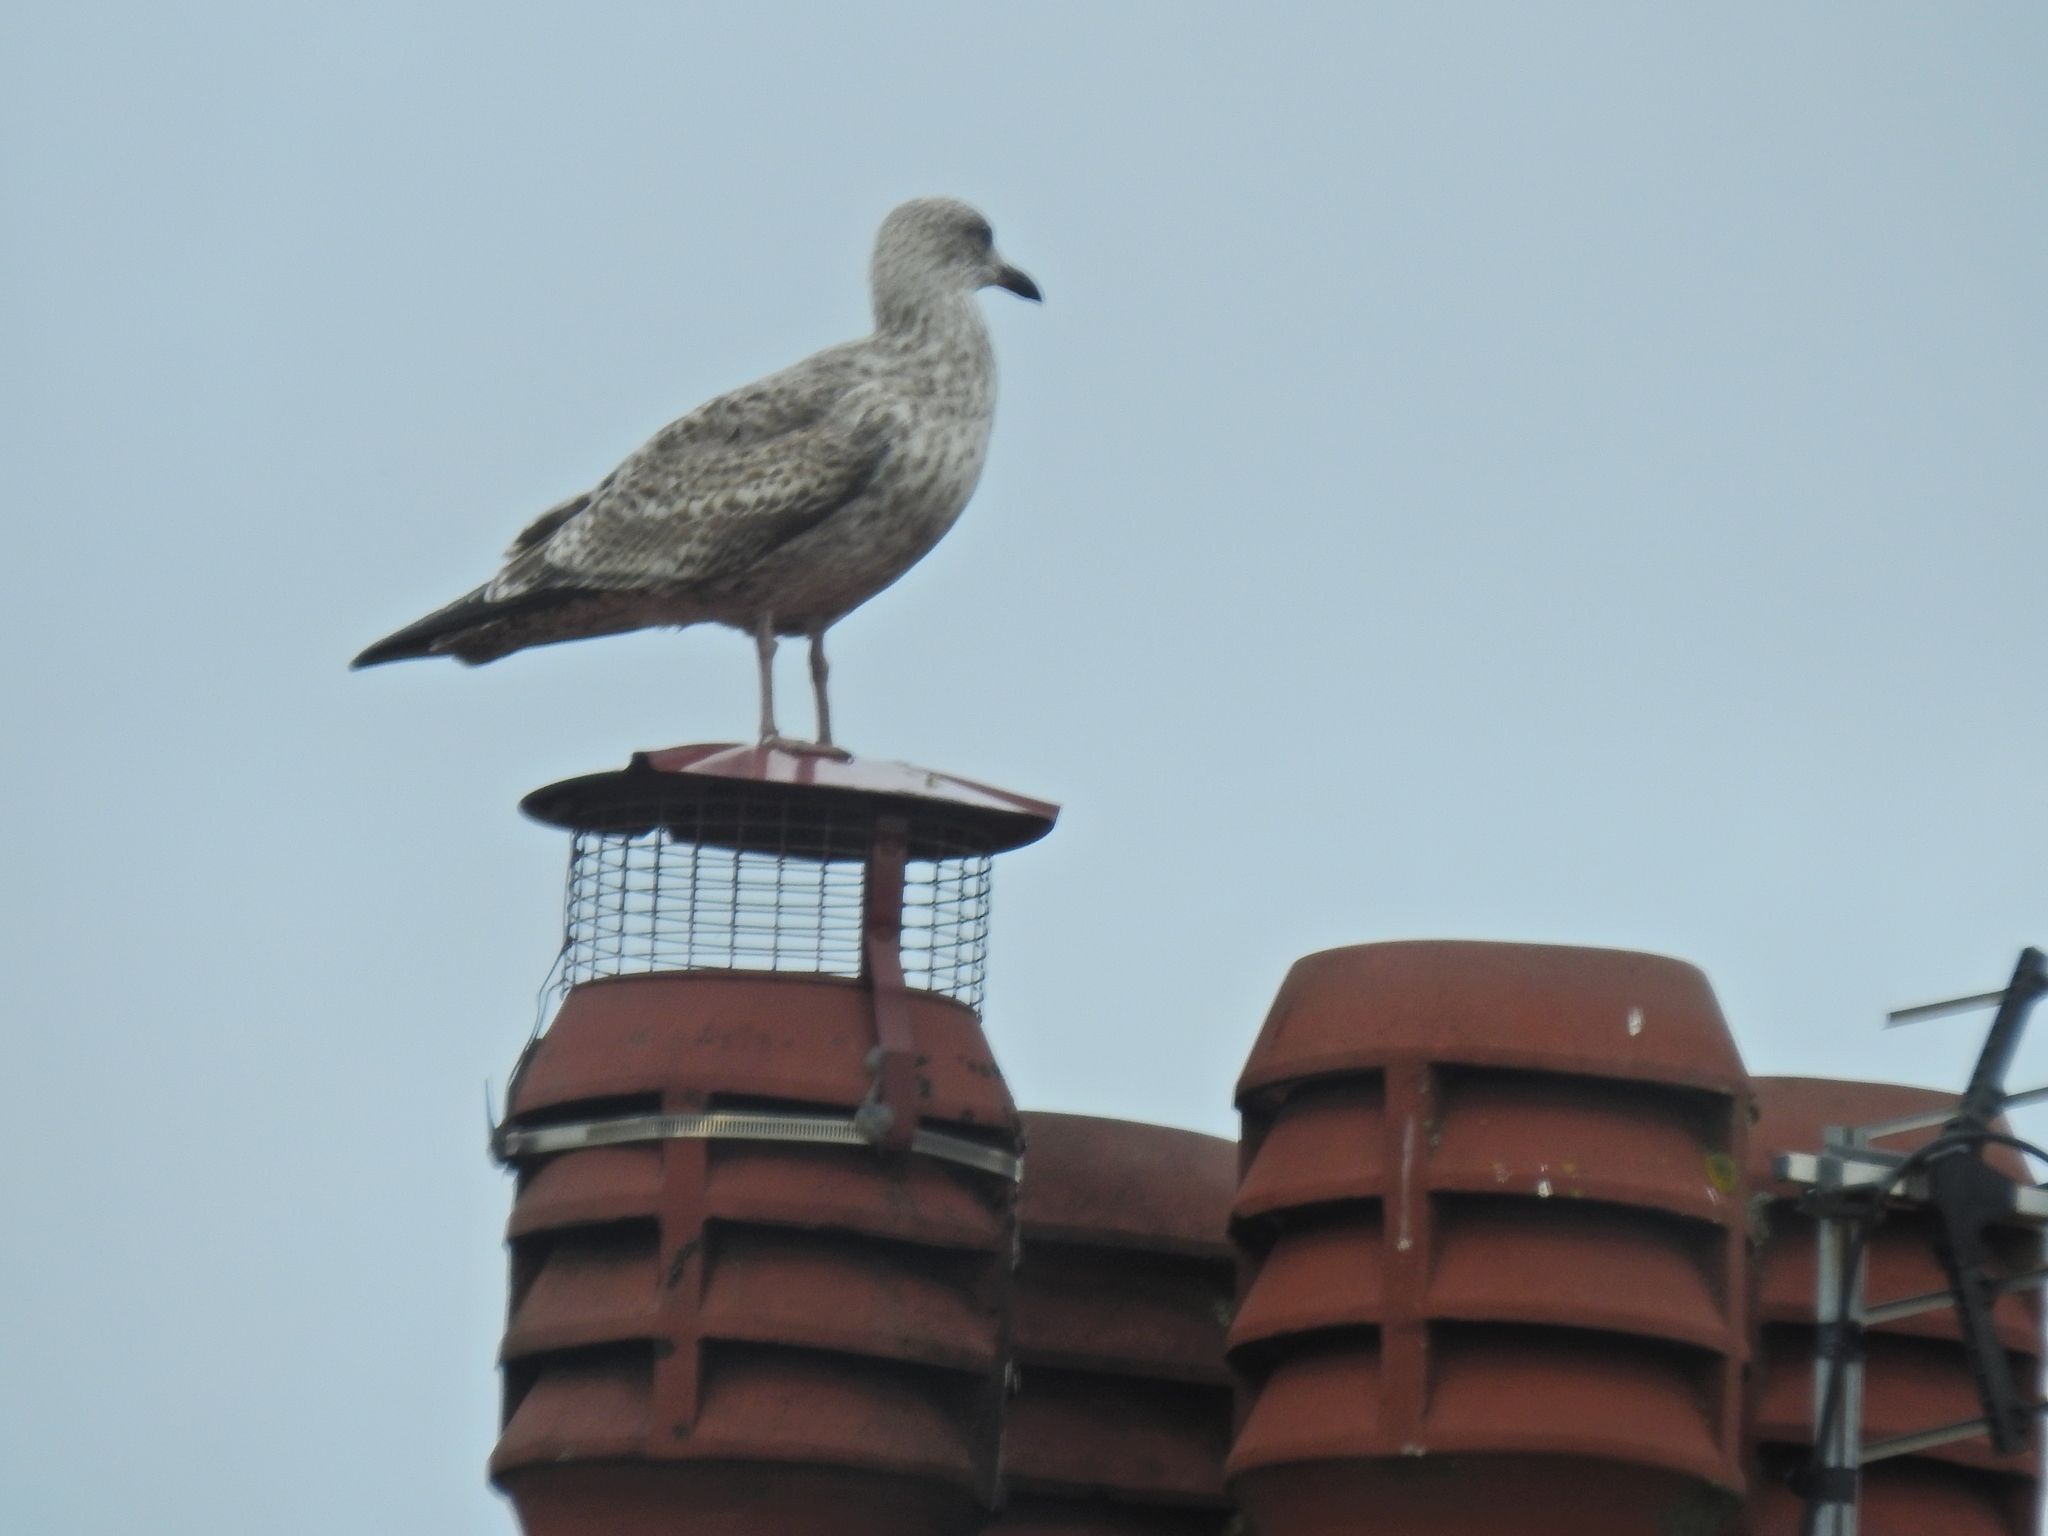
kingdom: Animalia
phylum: Chordata
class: Aves
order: Charadriiformes
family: Laridae
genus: Larus
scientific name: Larus argentatus
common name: Herring gull
